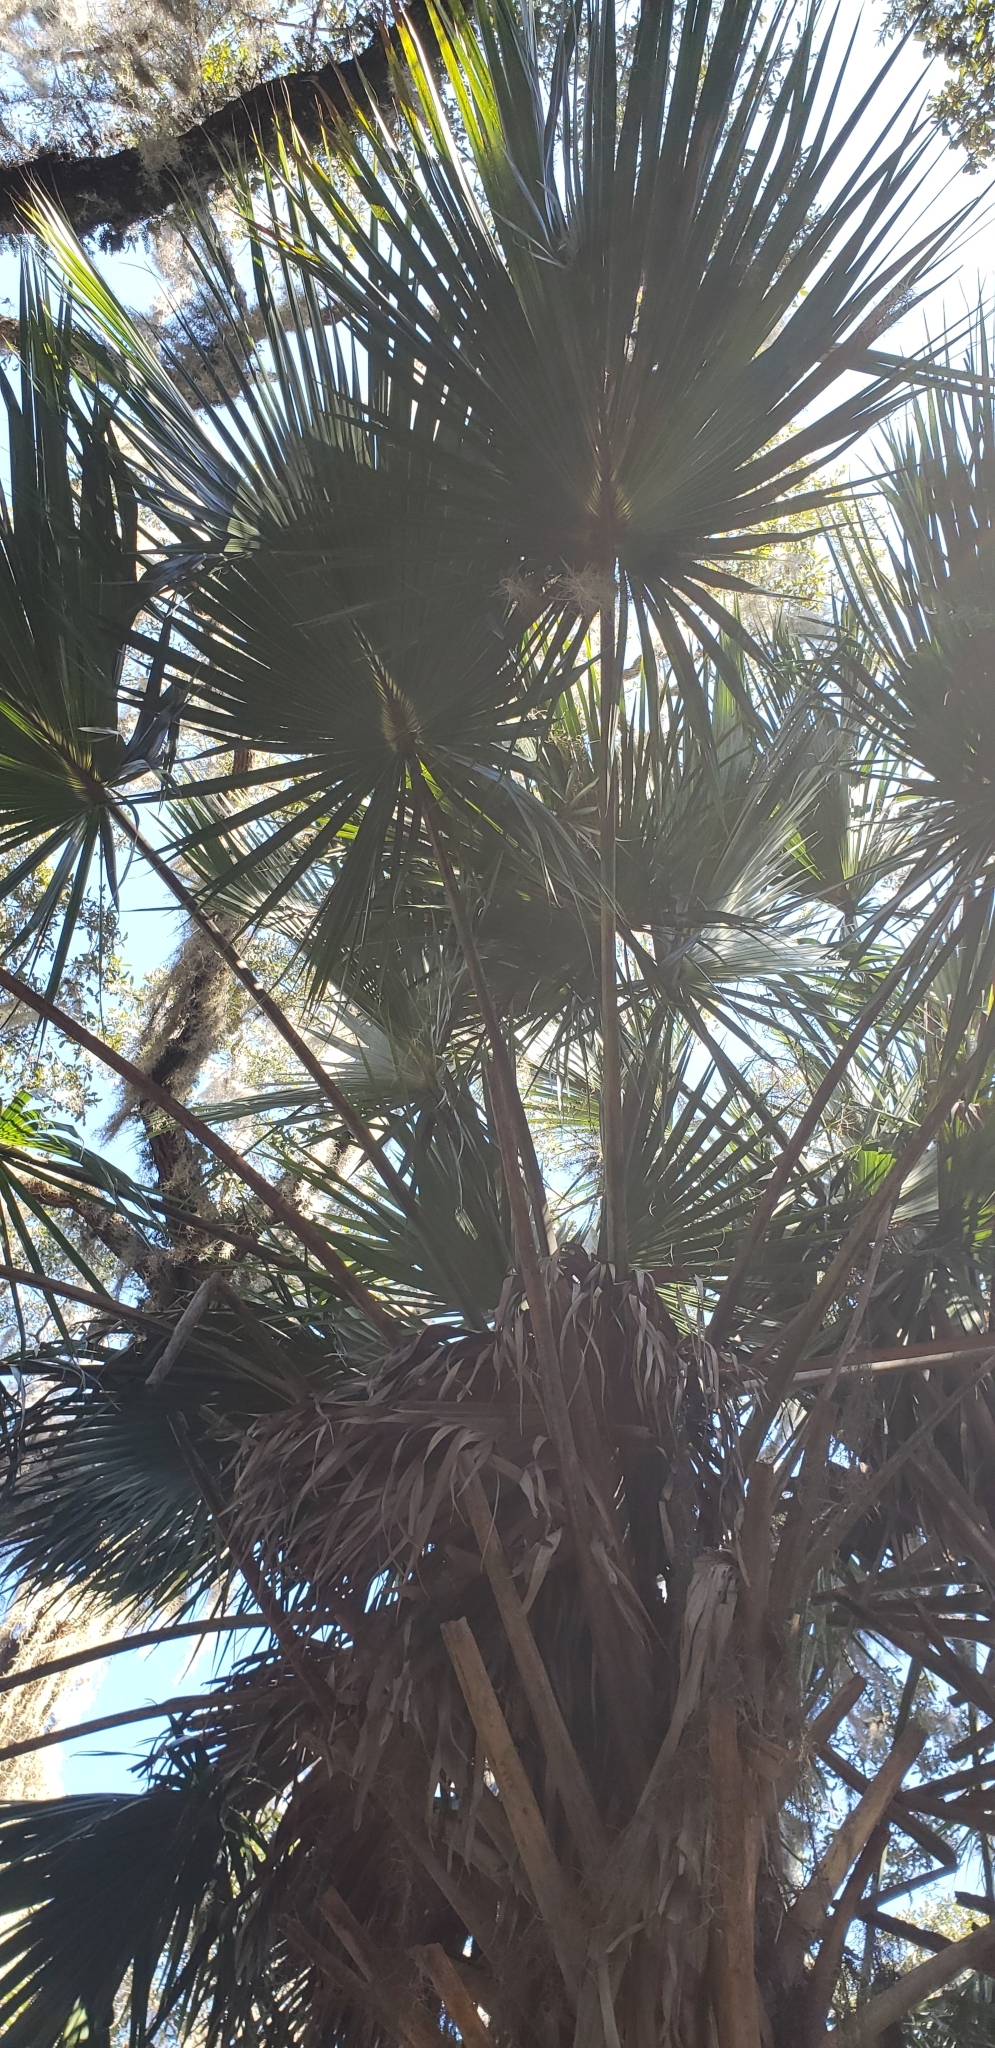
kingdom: Plantae
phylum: Tracheophyta
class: Liliopsida
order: Arecales
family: Arecaceae
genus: Sabal
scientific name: Sabal palmetto
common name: Blue palmetto
